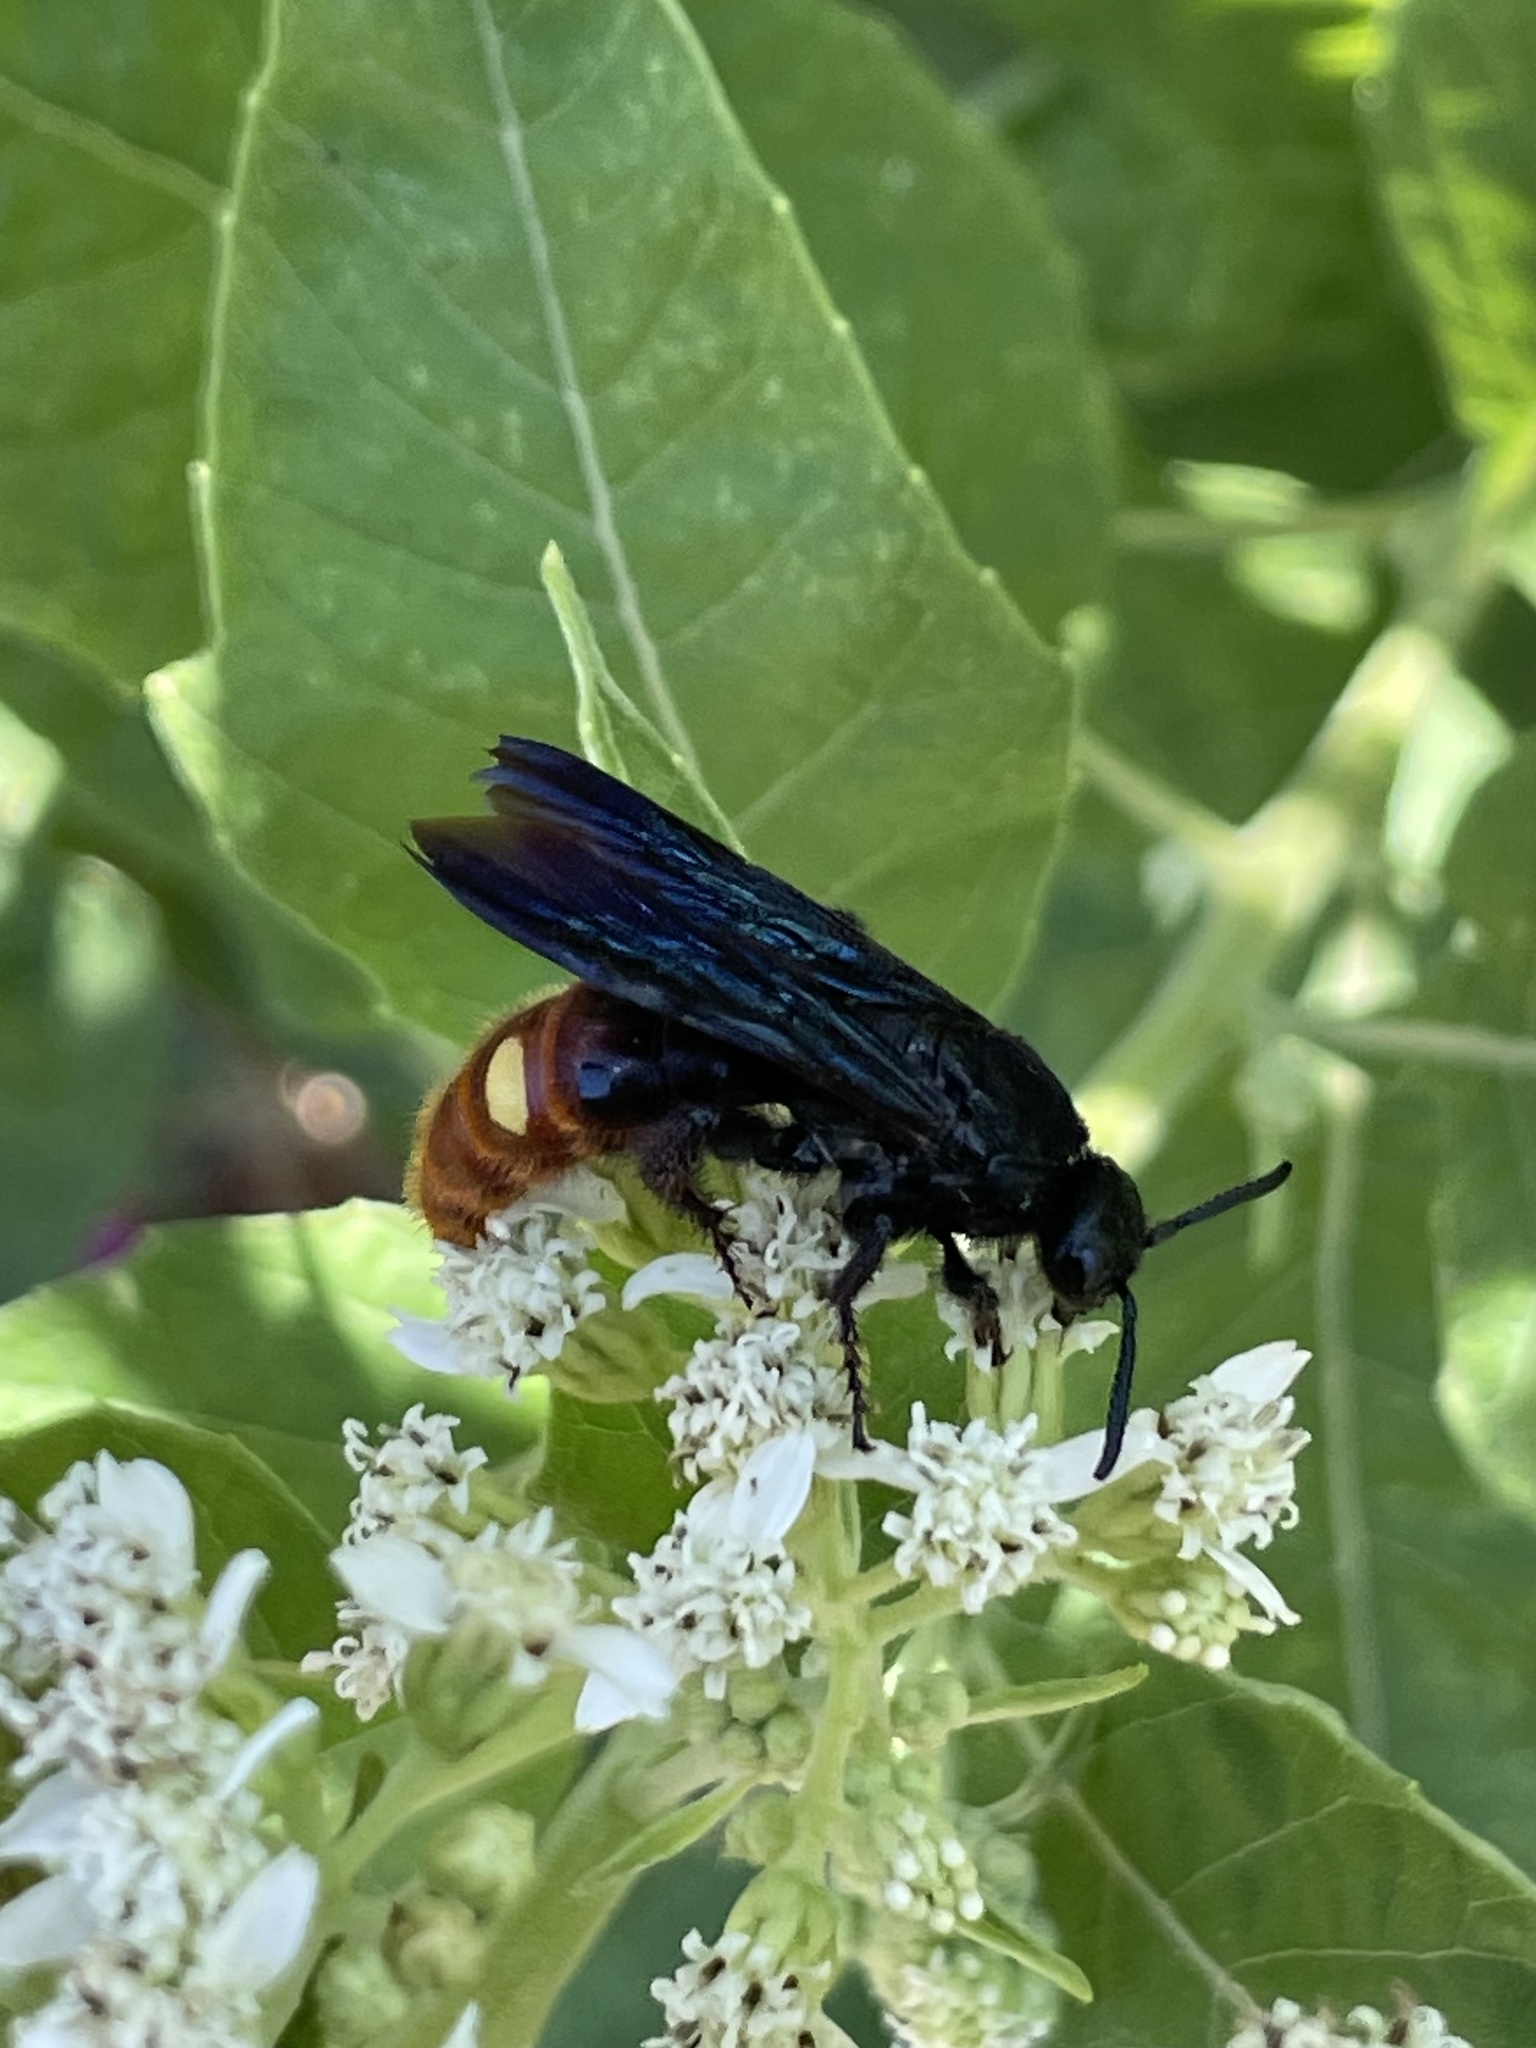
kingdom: Animalia
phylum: Arthropoda
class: Insecta
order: Hymenoptera
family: Scoliidae
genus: Scolia
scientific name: Scolia dubia
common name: Blue-winged scoliid wasp
